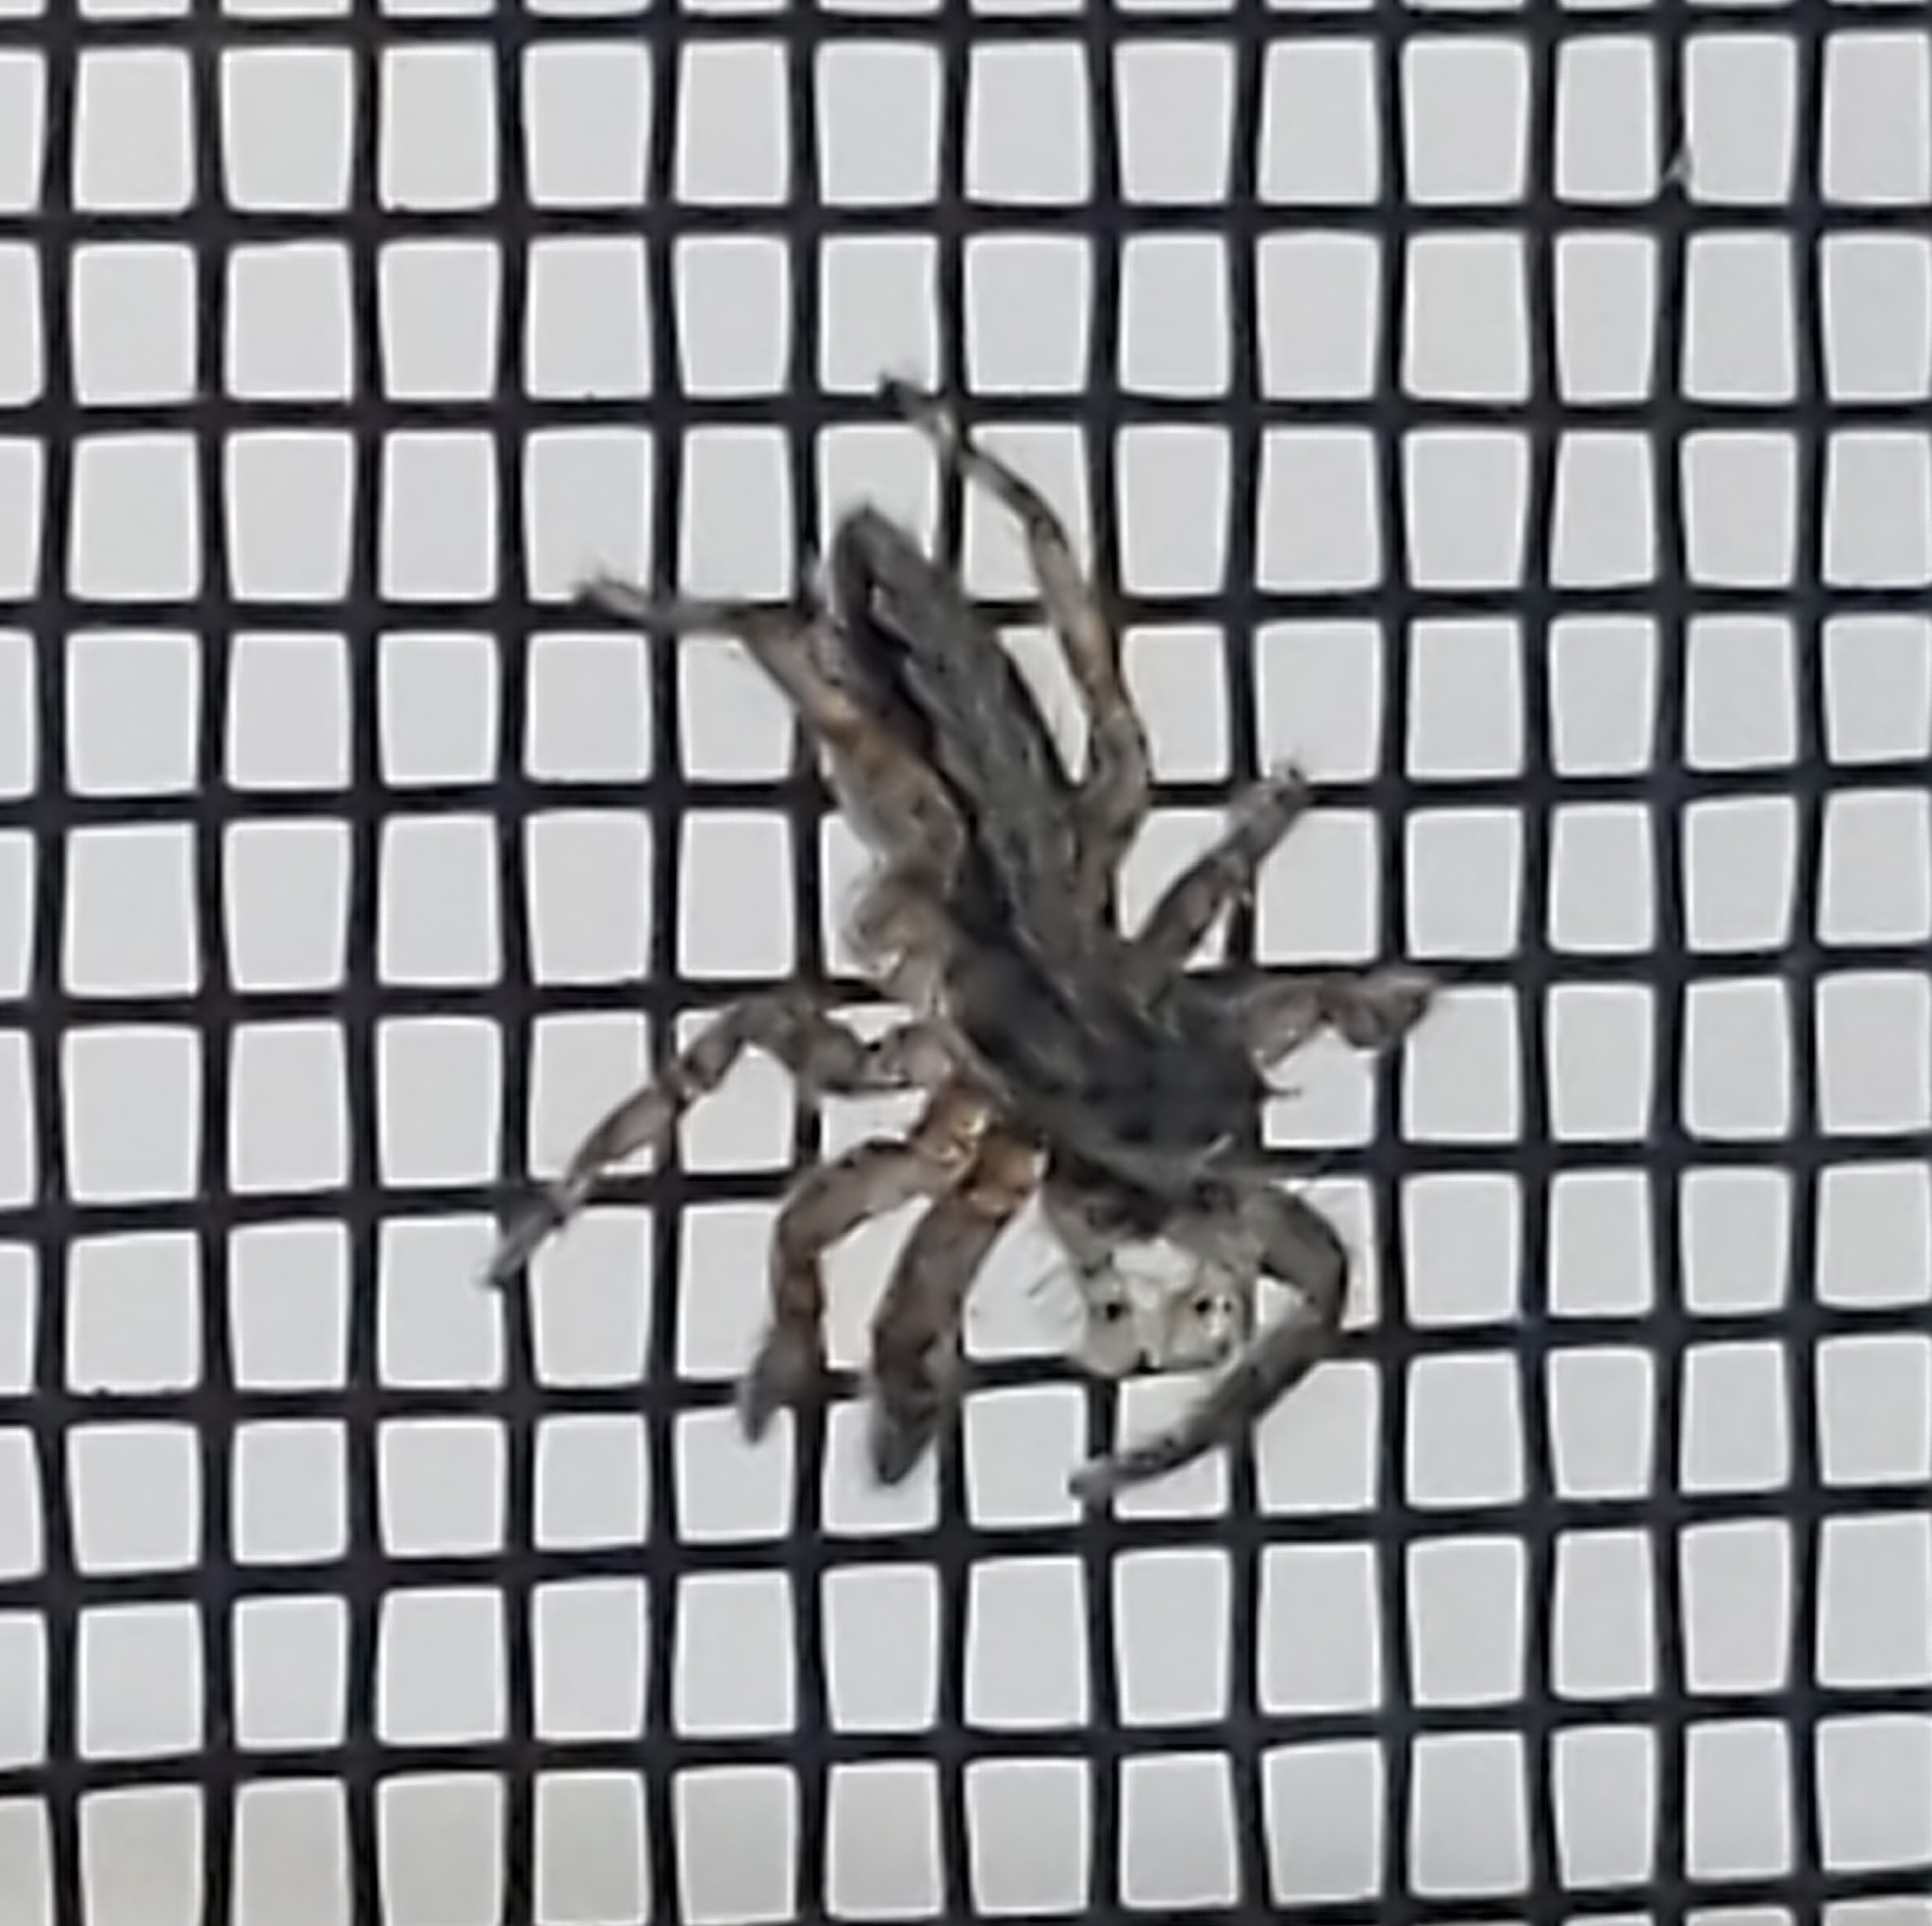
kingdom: Animalia
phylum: Arthropoda
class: Arachnida
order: Araneae
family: Salticidae
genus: Platycryptus
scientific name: Platycryptus californicus
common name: Jumping spiders
